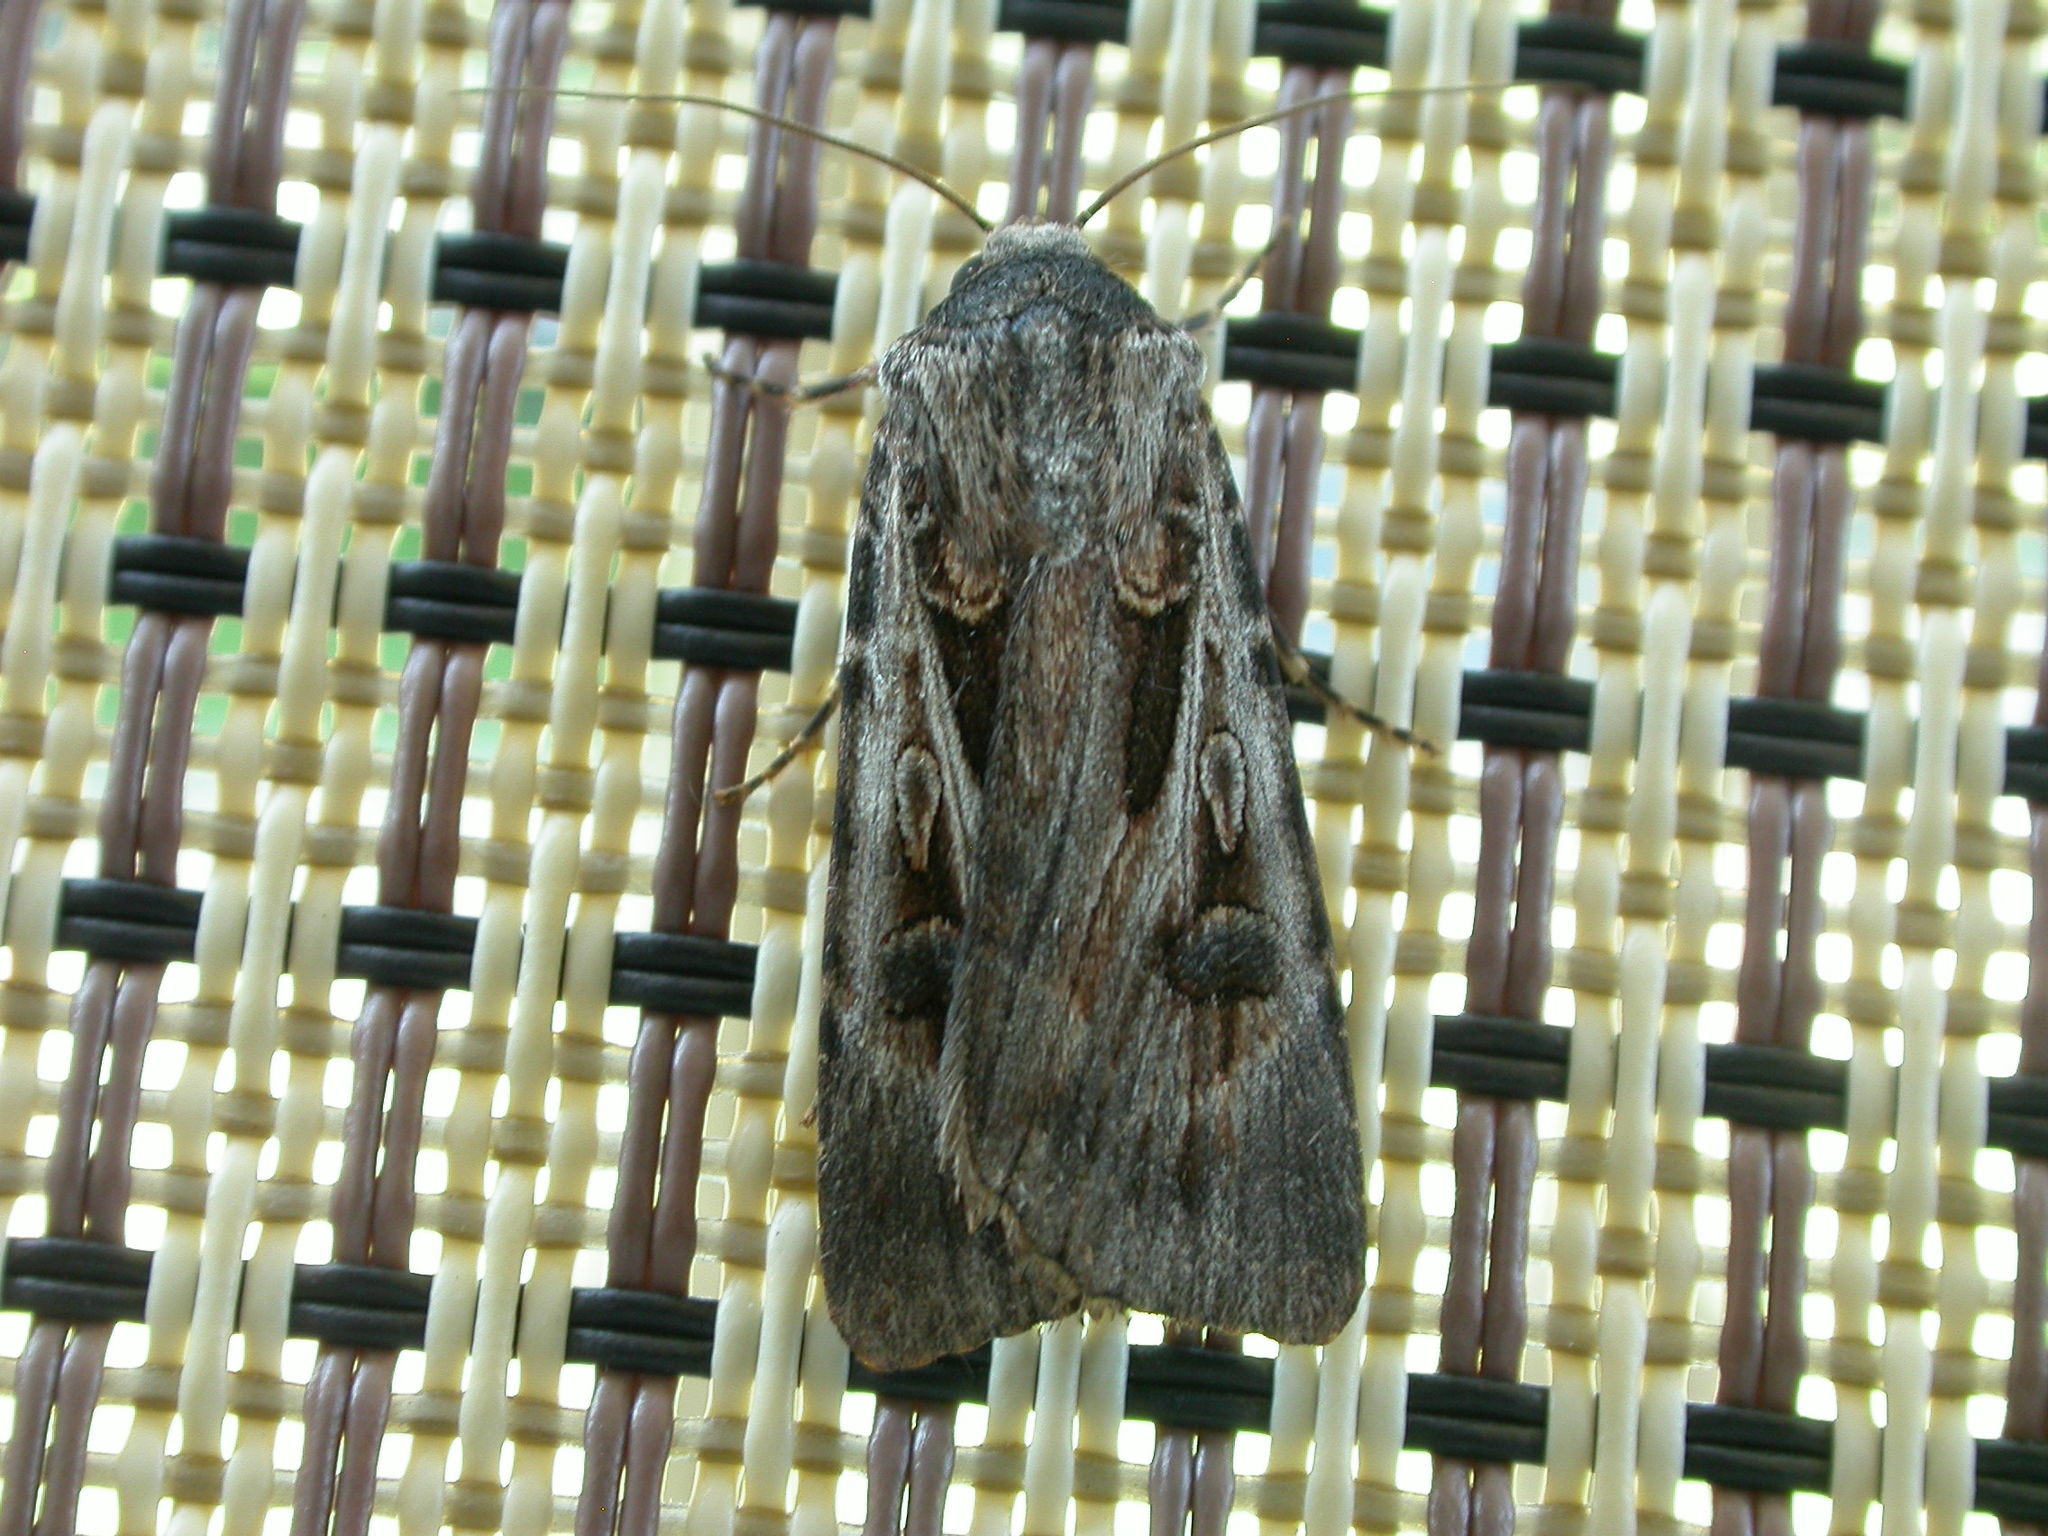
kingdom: Animalia
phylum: Arthropoda
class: Insecta
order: Lepidoptera
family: Noctuidae
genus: Agrotis
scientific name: Agrotis munda
